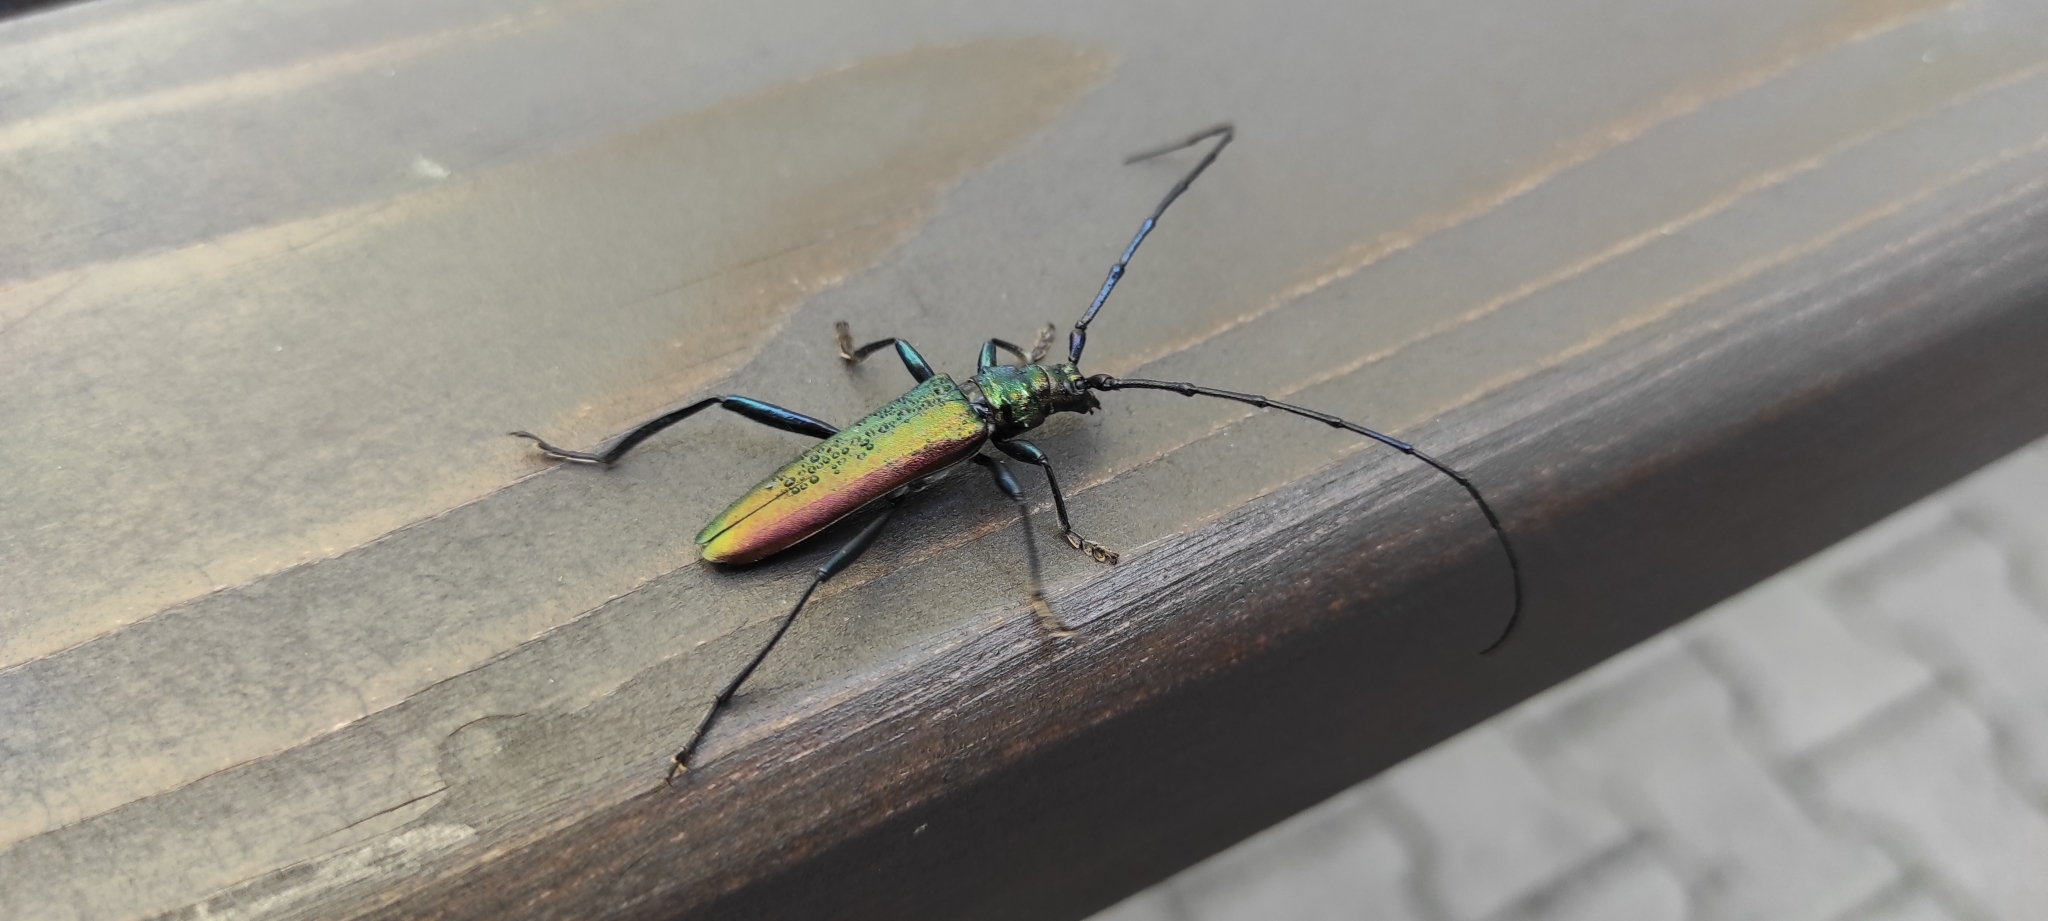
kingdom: Animalia
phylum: Arthropoda
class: Insecta
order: Coleoptera
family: Cerambycidae
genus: Aromia
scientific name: Aromia moschata
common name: Musk beetle
